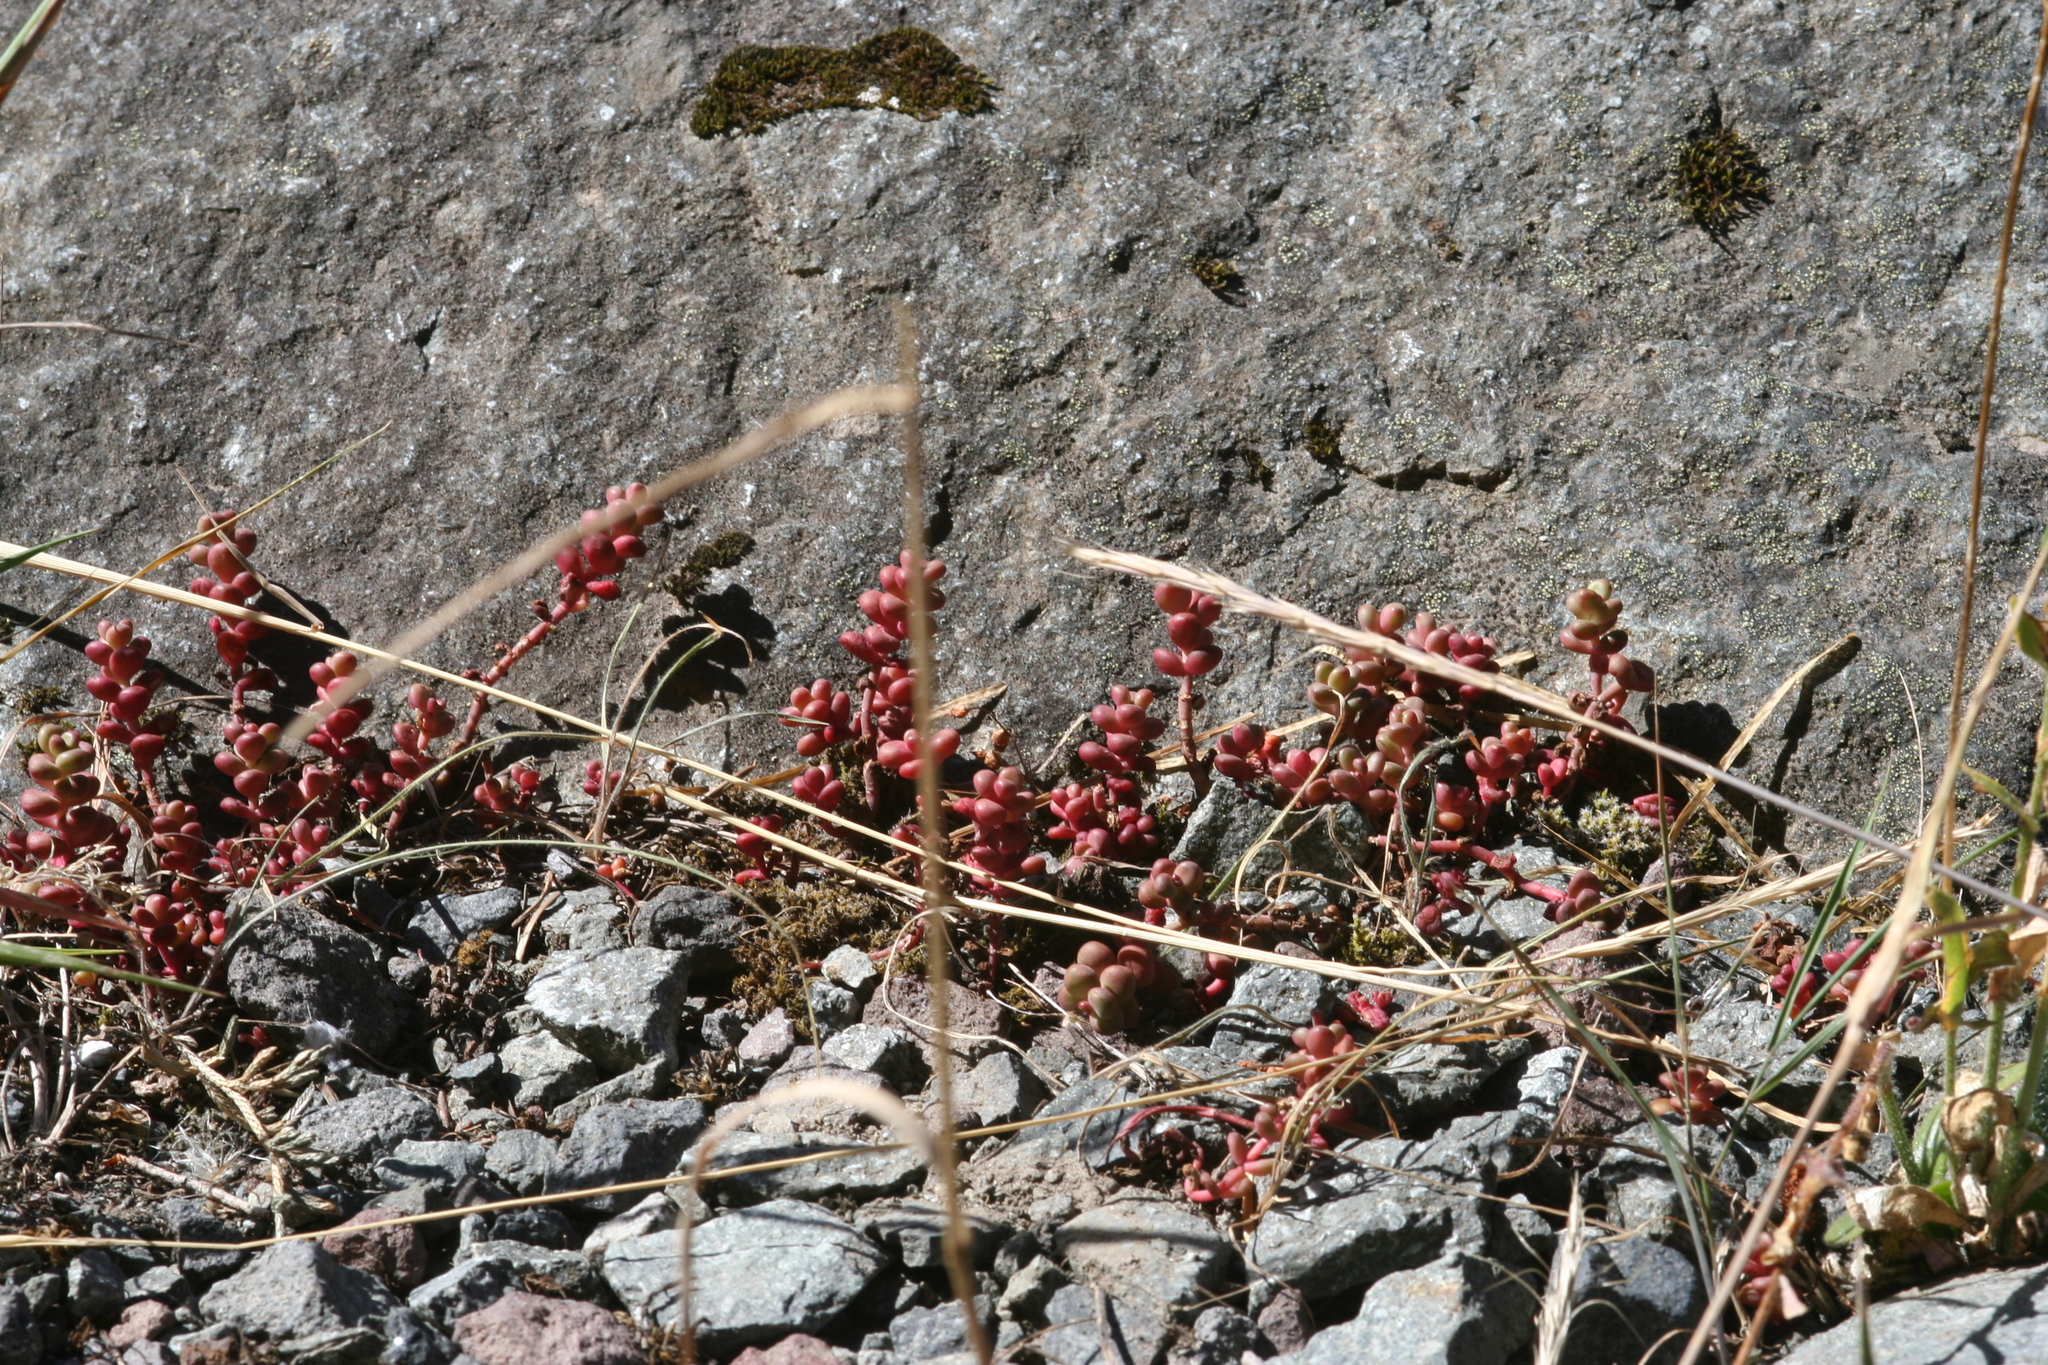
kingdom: Plantae
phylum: Tracheophyta
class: Magnoliopsida
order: Saxifragales
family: Crassulaceae
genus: Sedum
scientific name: Sedum divergens
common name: Cascade stonecrop
